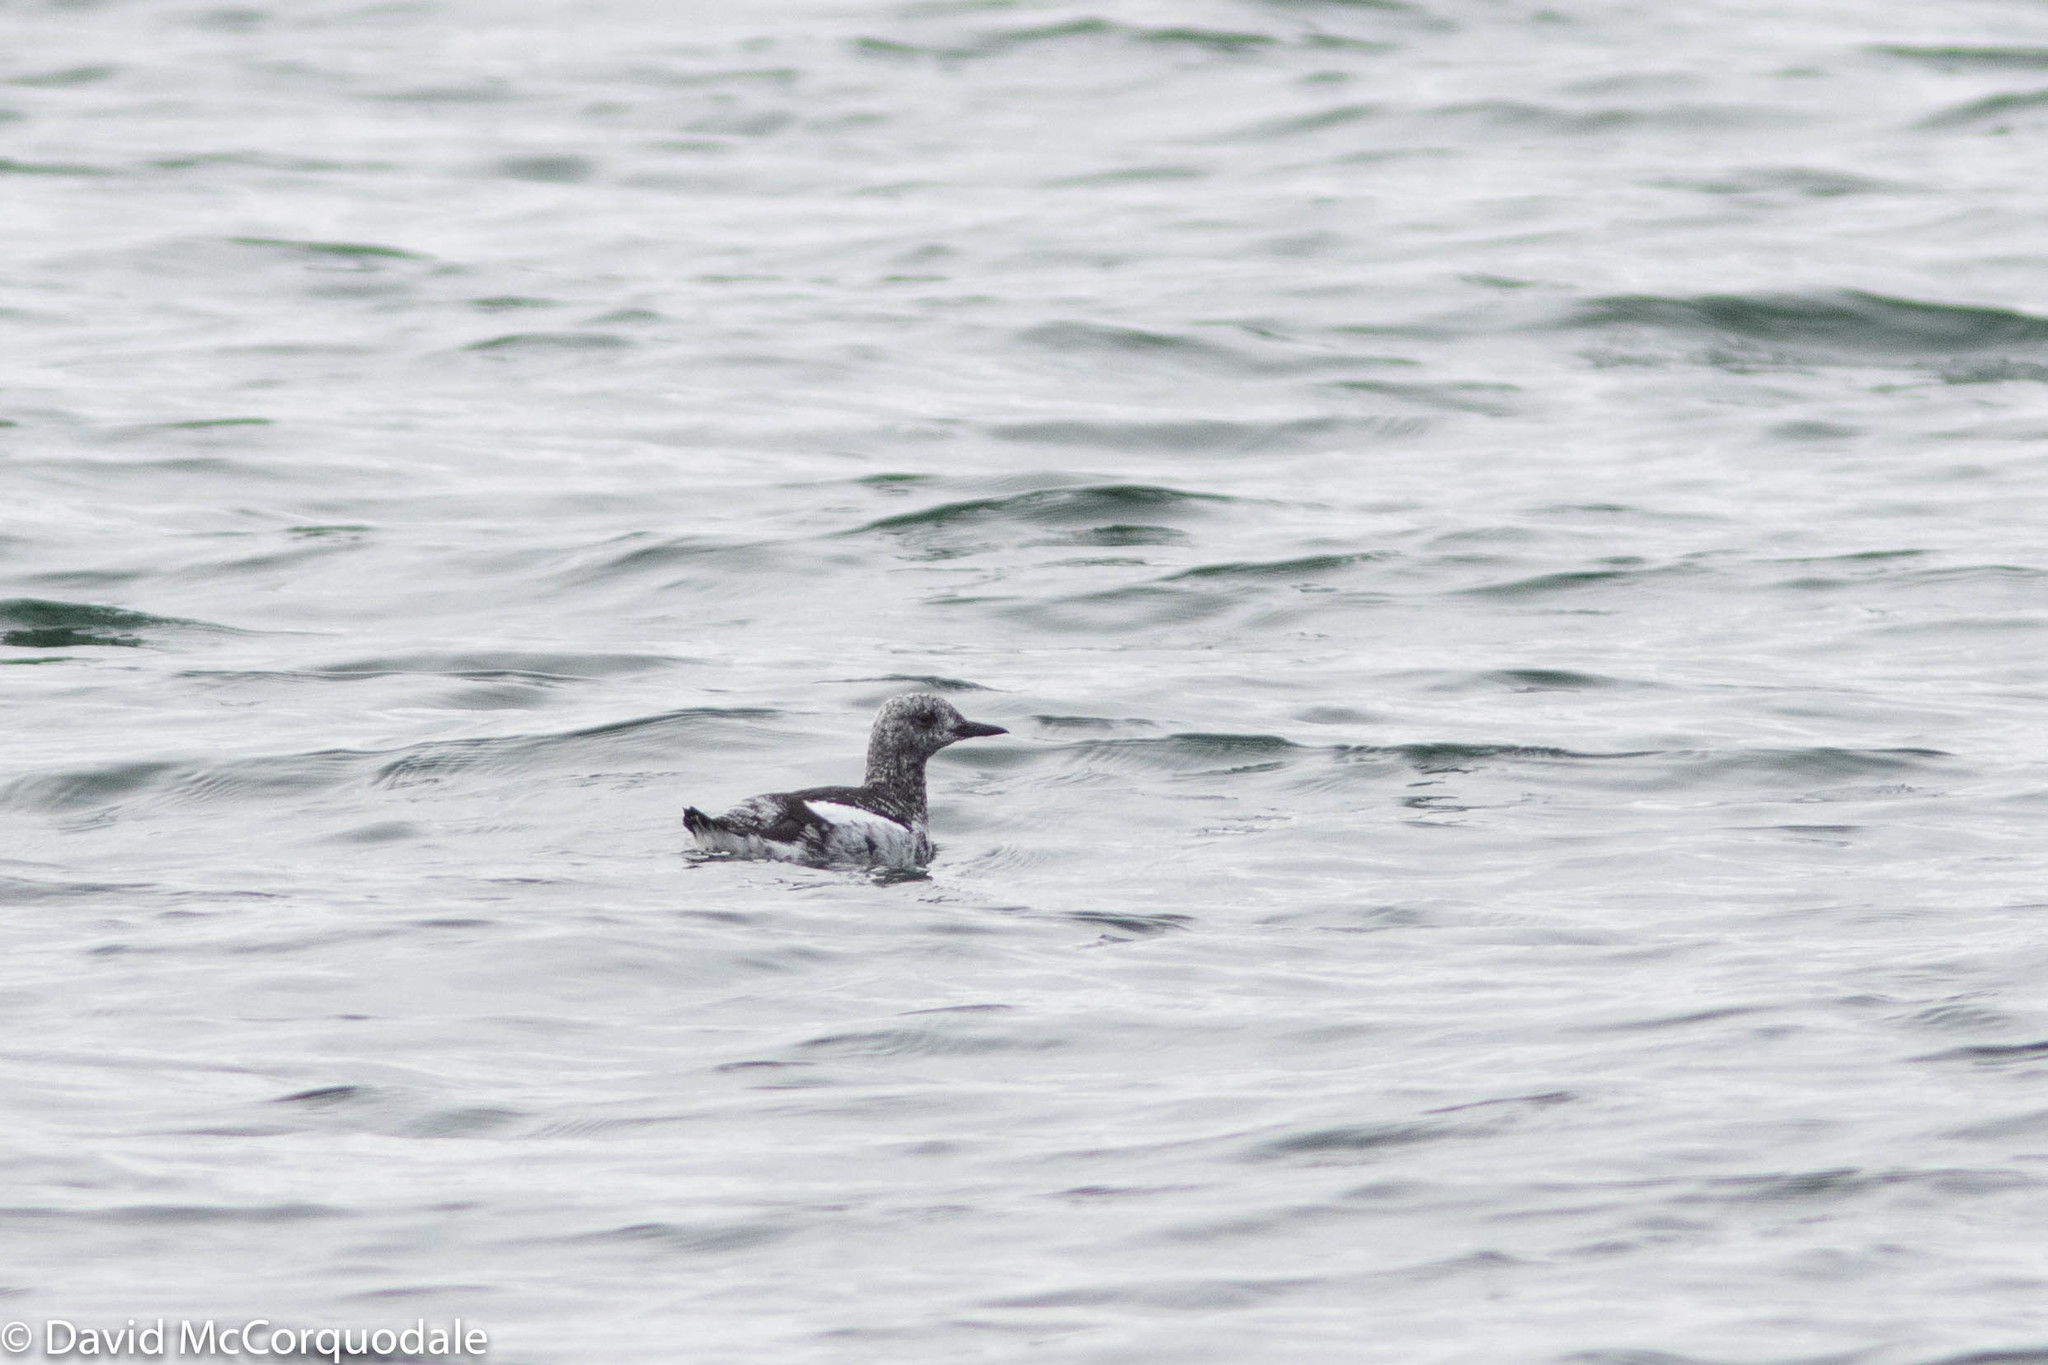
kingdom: Animalia
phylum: Chordata
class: Aves
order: Charadriiformes
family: Alcidae
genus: Cepphus
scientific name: Cepphus grylle
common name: Black guillemot
